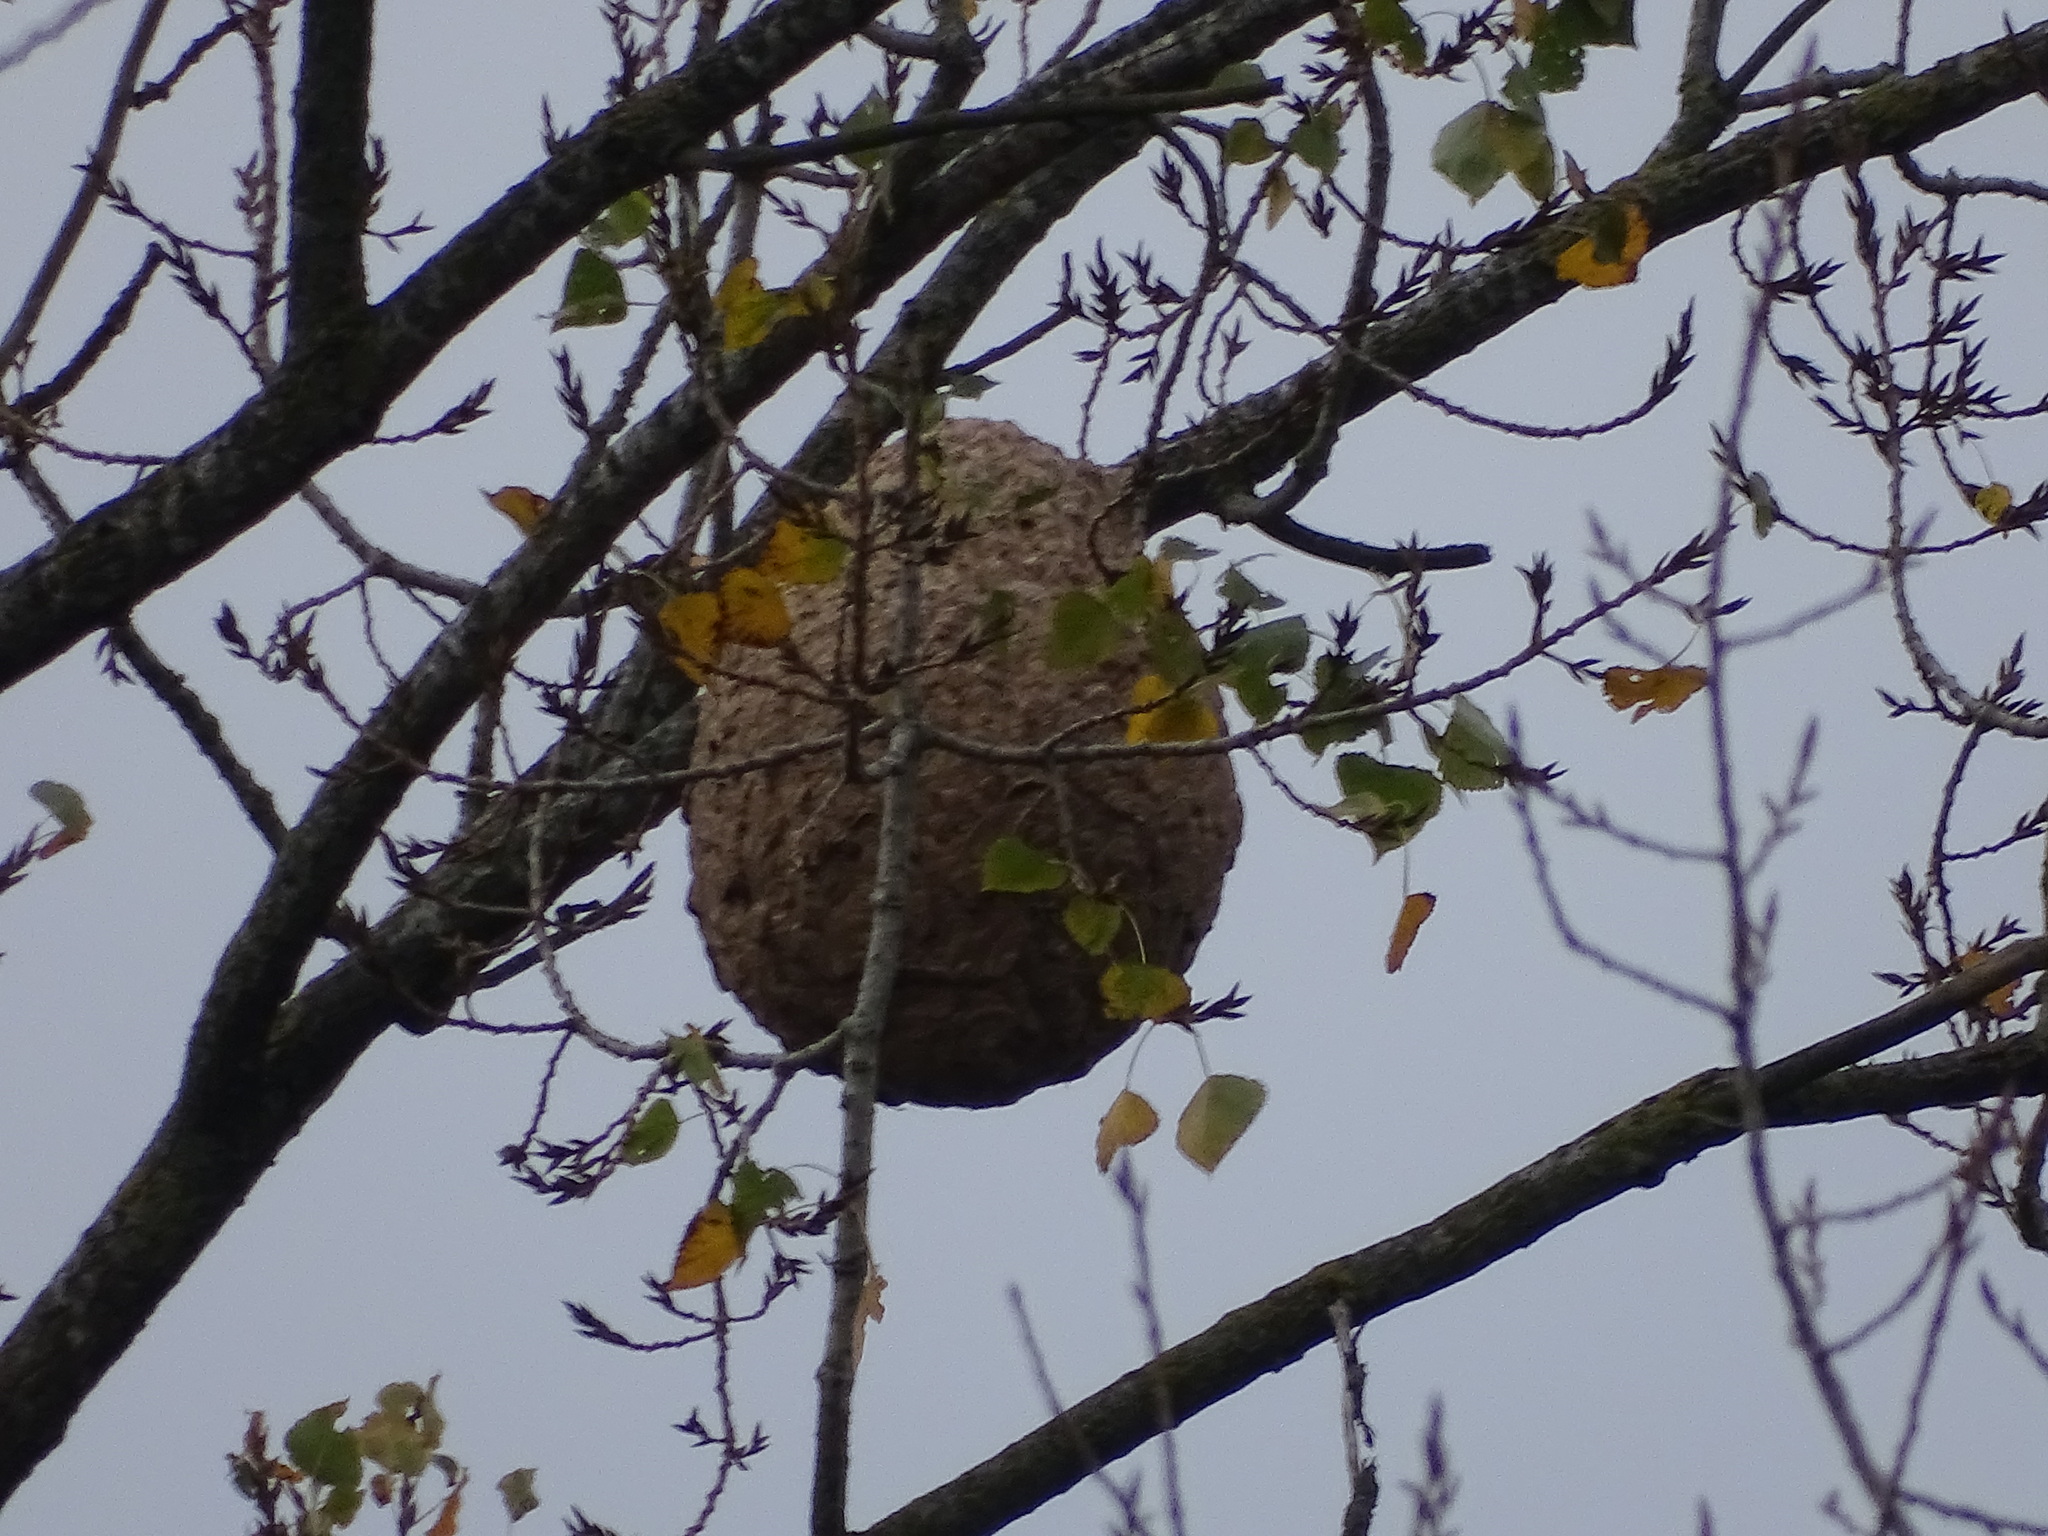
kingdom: Animalia
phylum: Arthropoda
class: Insecta
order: Hymenoptera
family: Vespidae
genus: Vespa
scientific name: Vespa velutina
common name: Asian hornet
